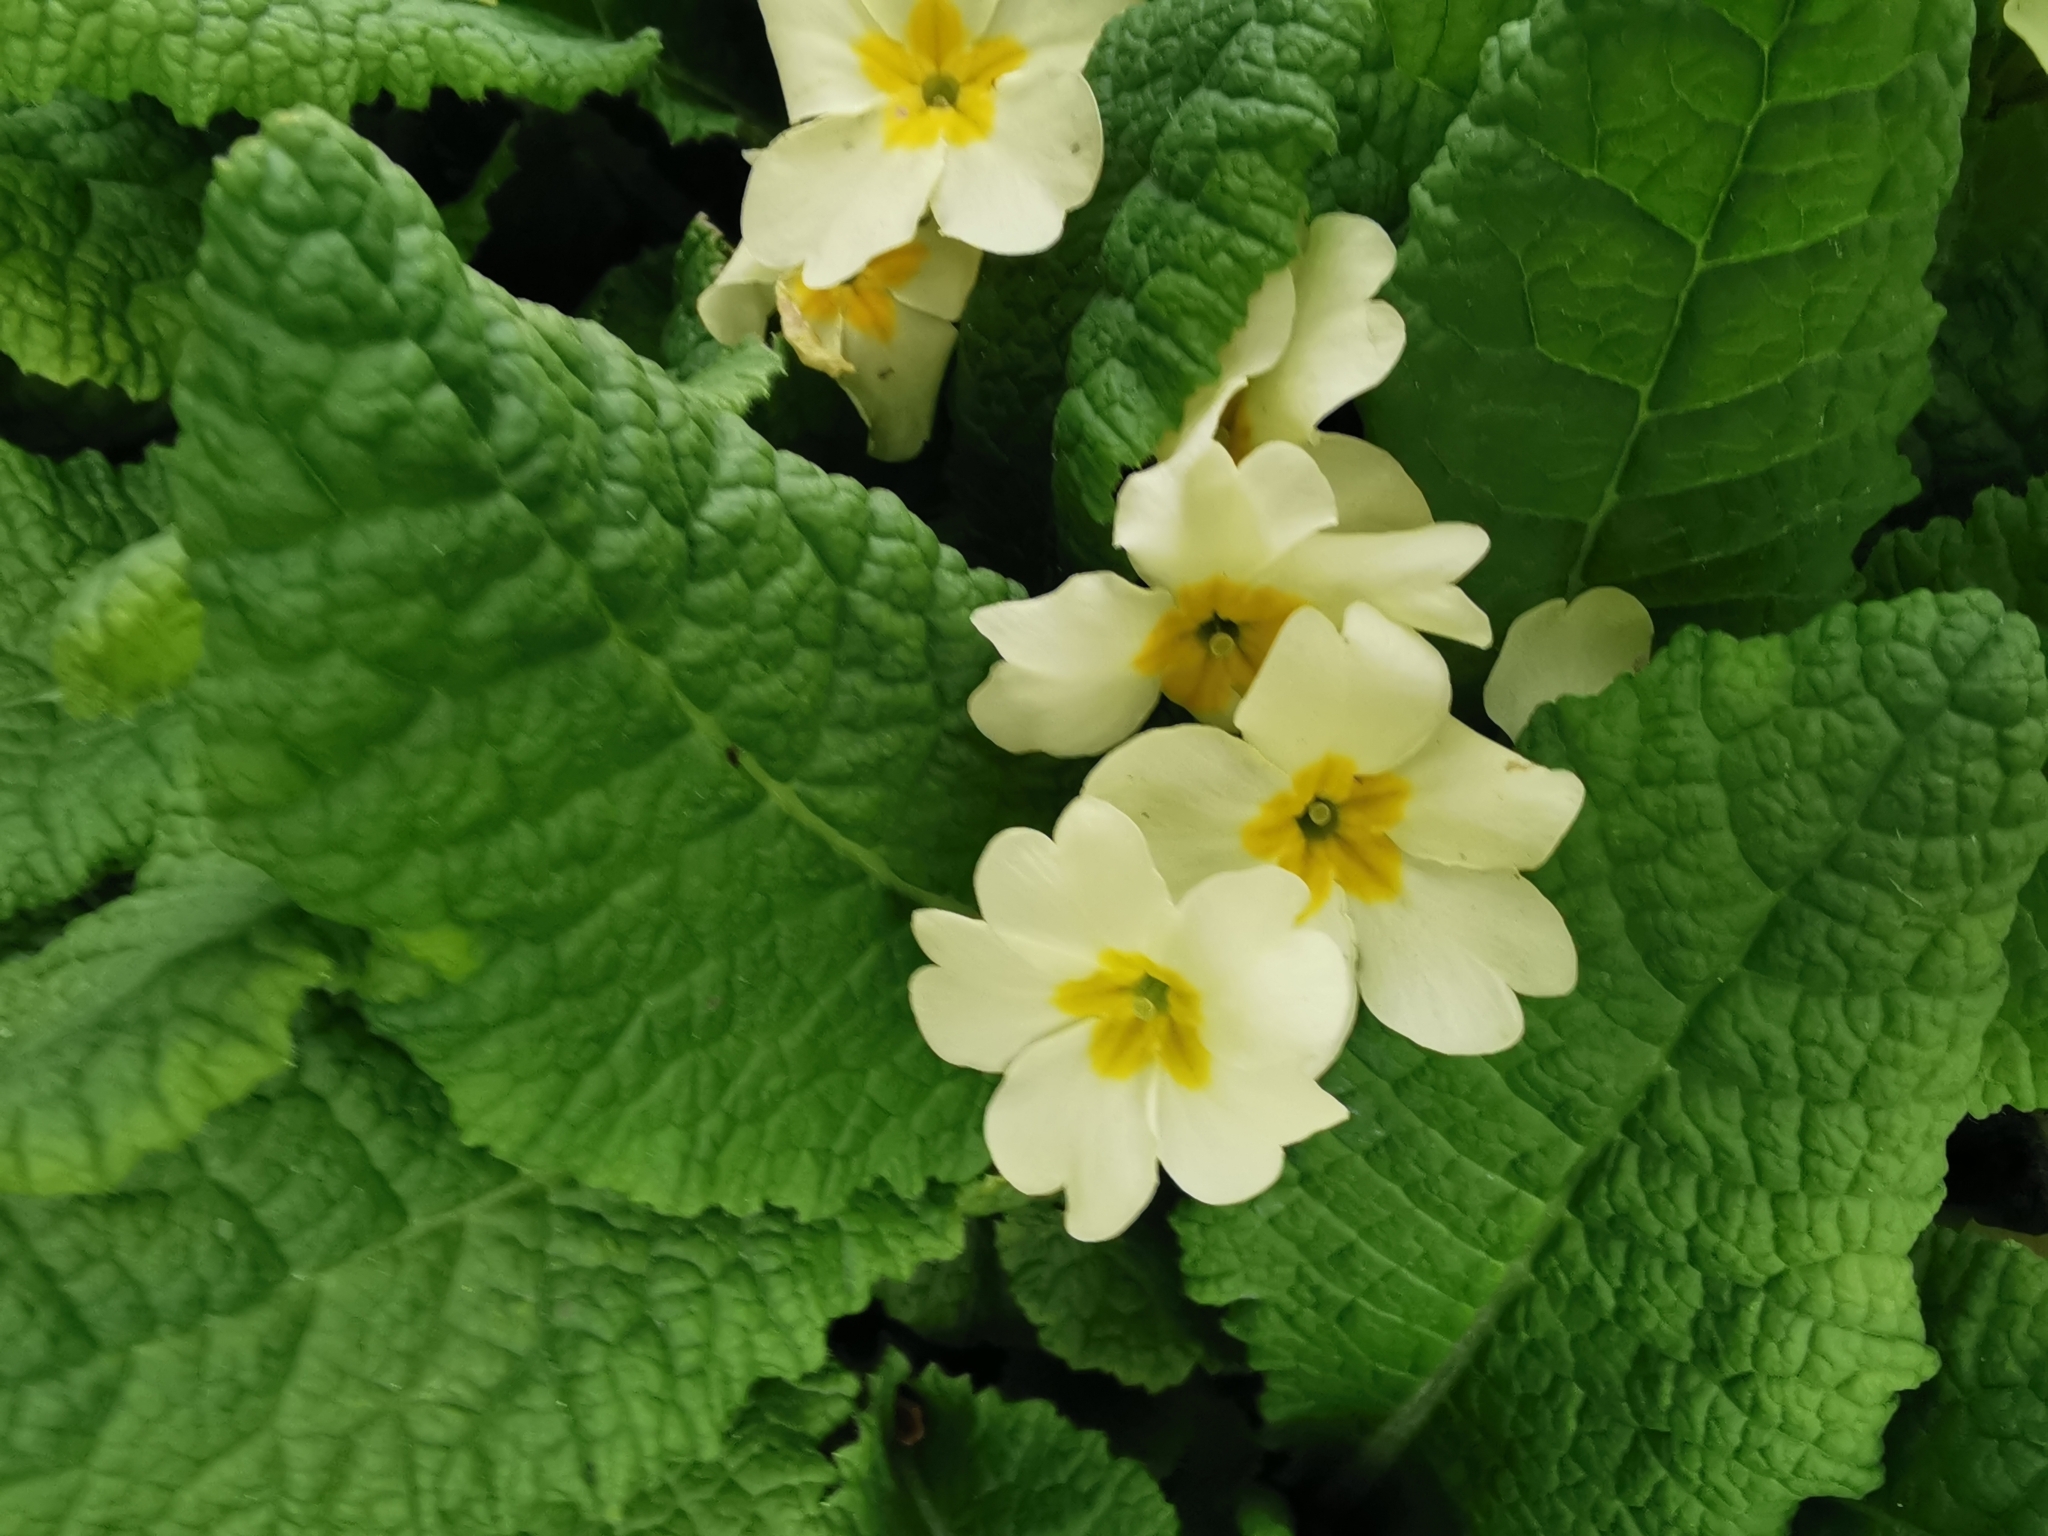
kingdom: Plantae
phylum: Tracheophyta
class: Magnoliopsida
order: Ericales
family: Primulaceae
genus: Primula
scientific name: Primula vulgaris
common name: Primrose
